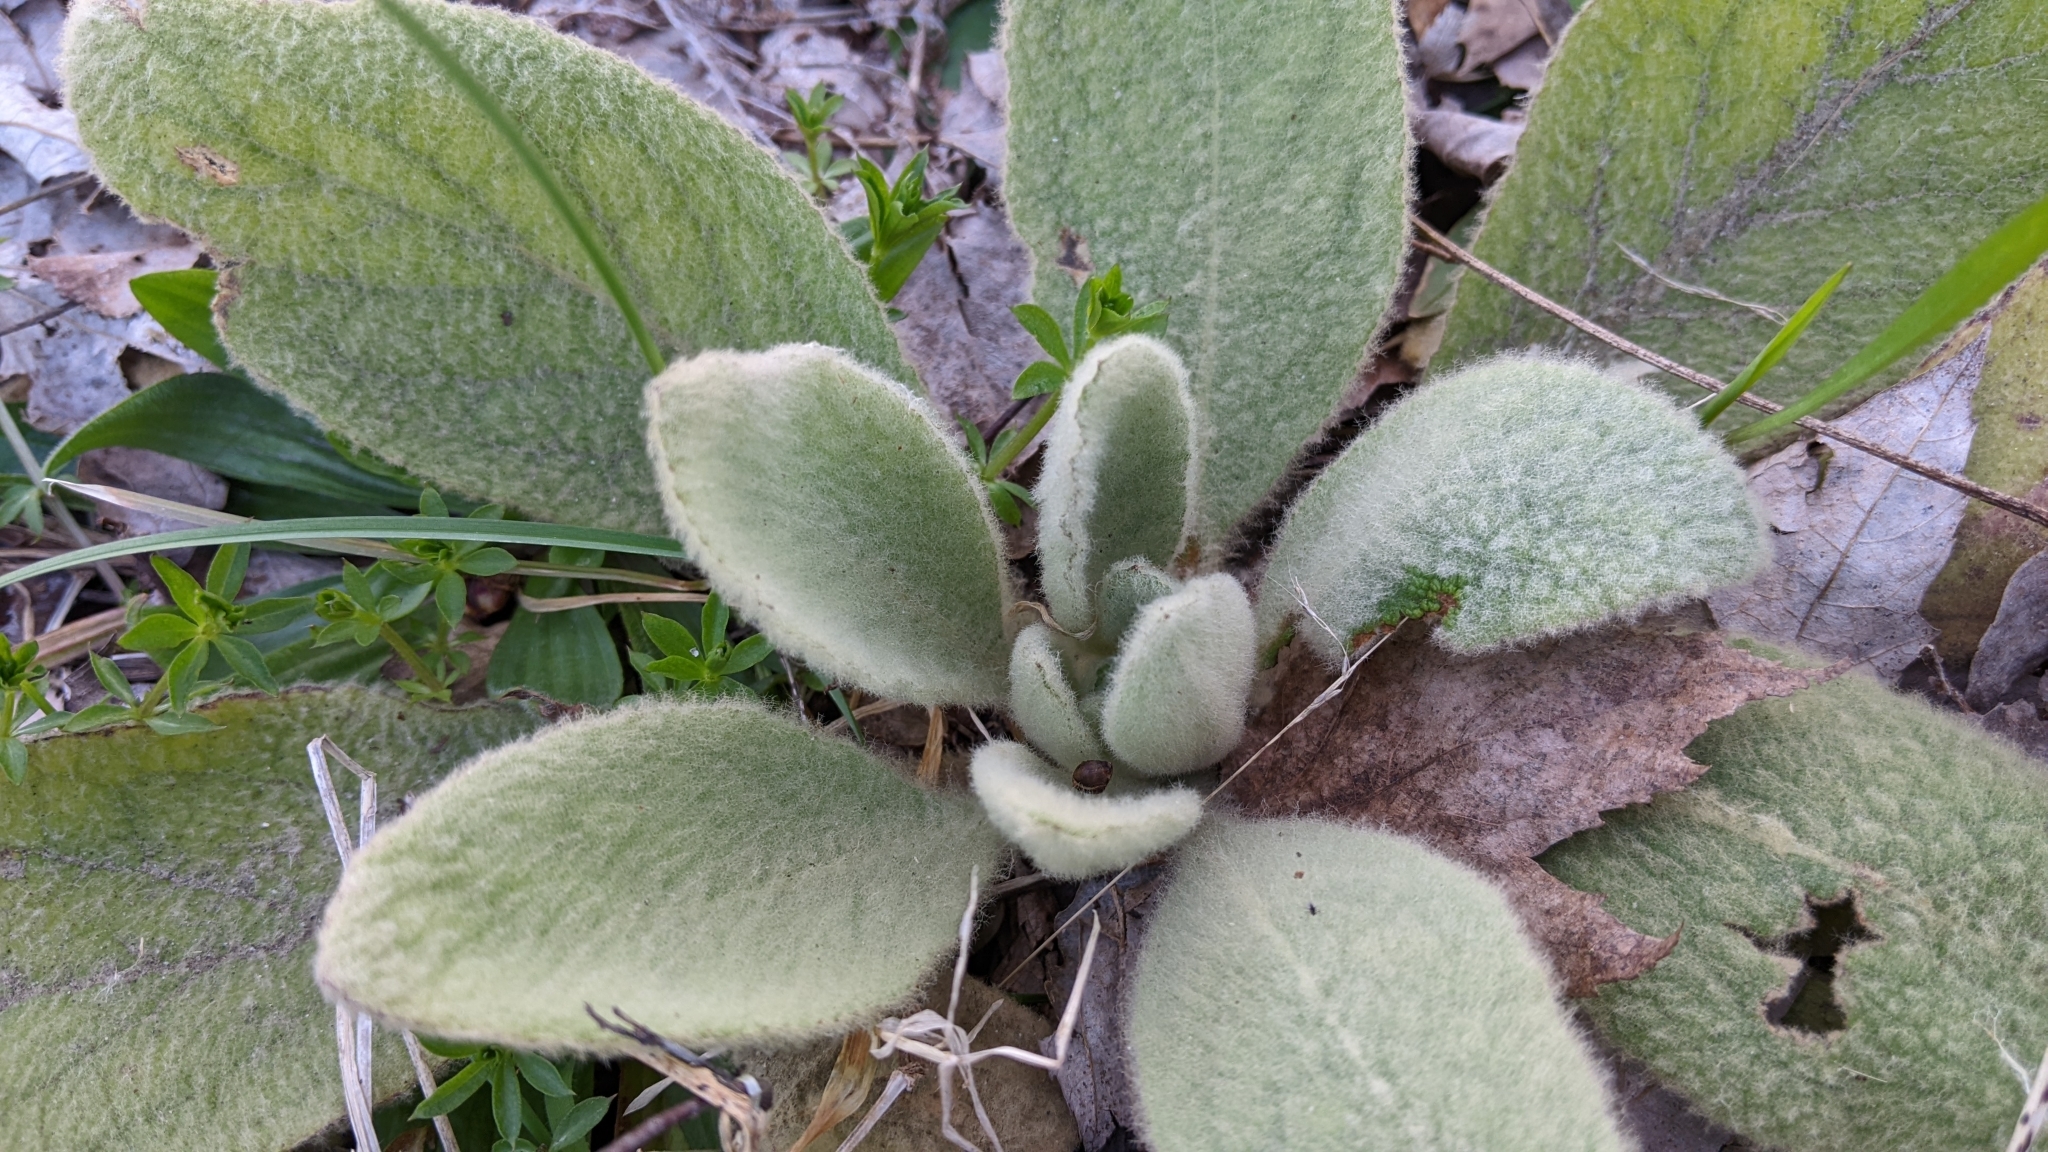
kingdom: Plantae
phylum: Tracheophyta
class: Magnoliopsida
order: Lamiales
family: Scrophulariaceae
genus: Verbascum
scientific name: Verbascum thapsus
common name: Common mullein
